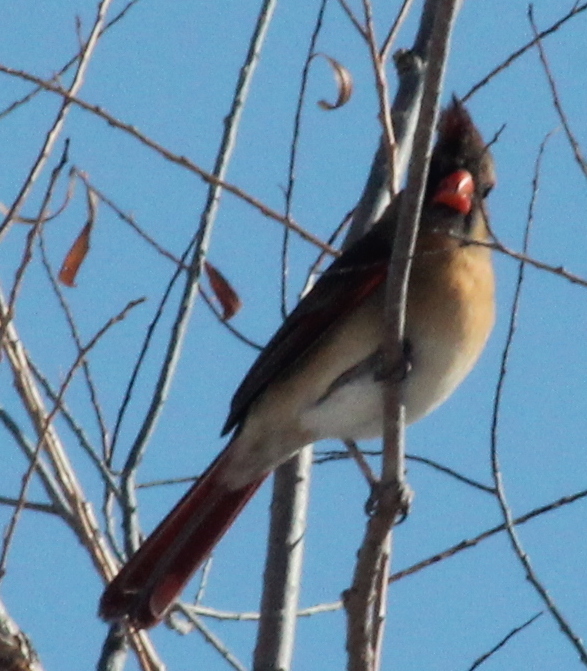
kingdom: Animalia
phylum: Chordata
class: Aves
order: Passeriformes
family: Cardinalidae
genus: Cardinalis
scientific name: Cardinalis cardinalis
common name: Northern cardinal
